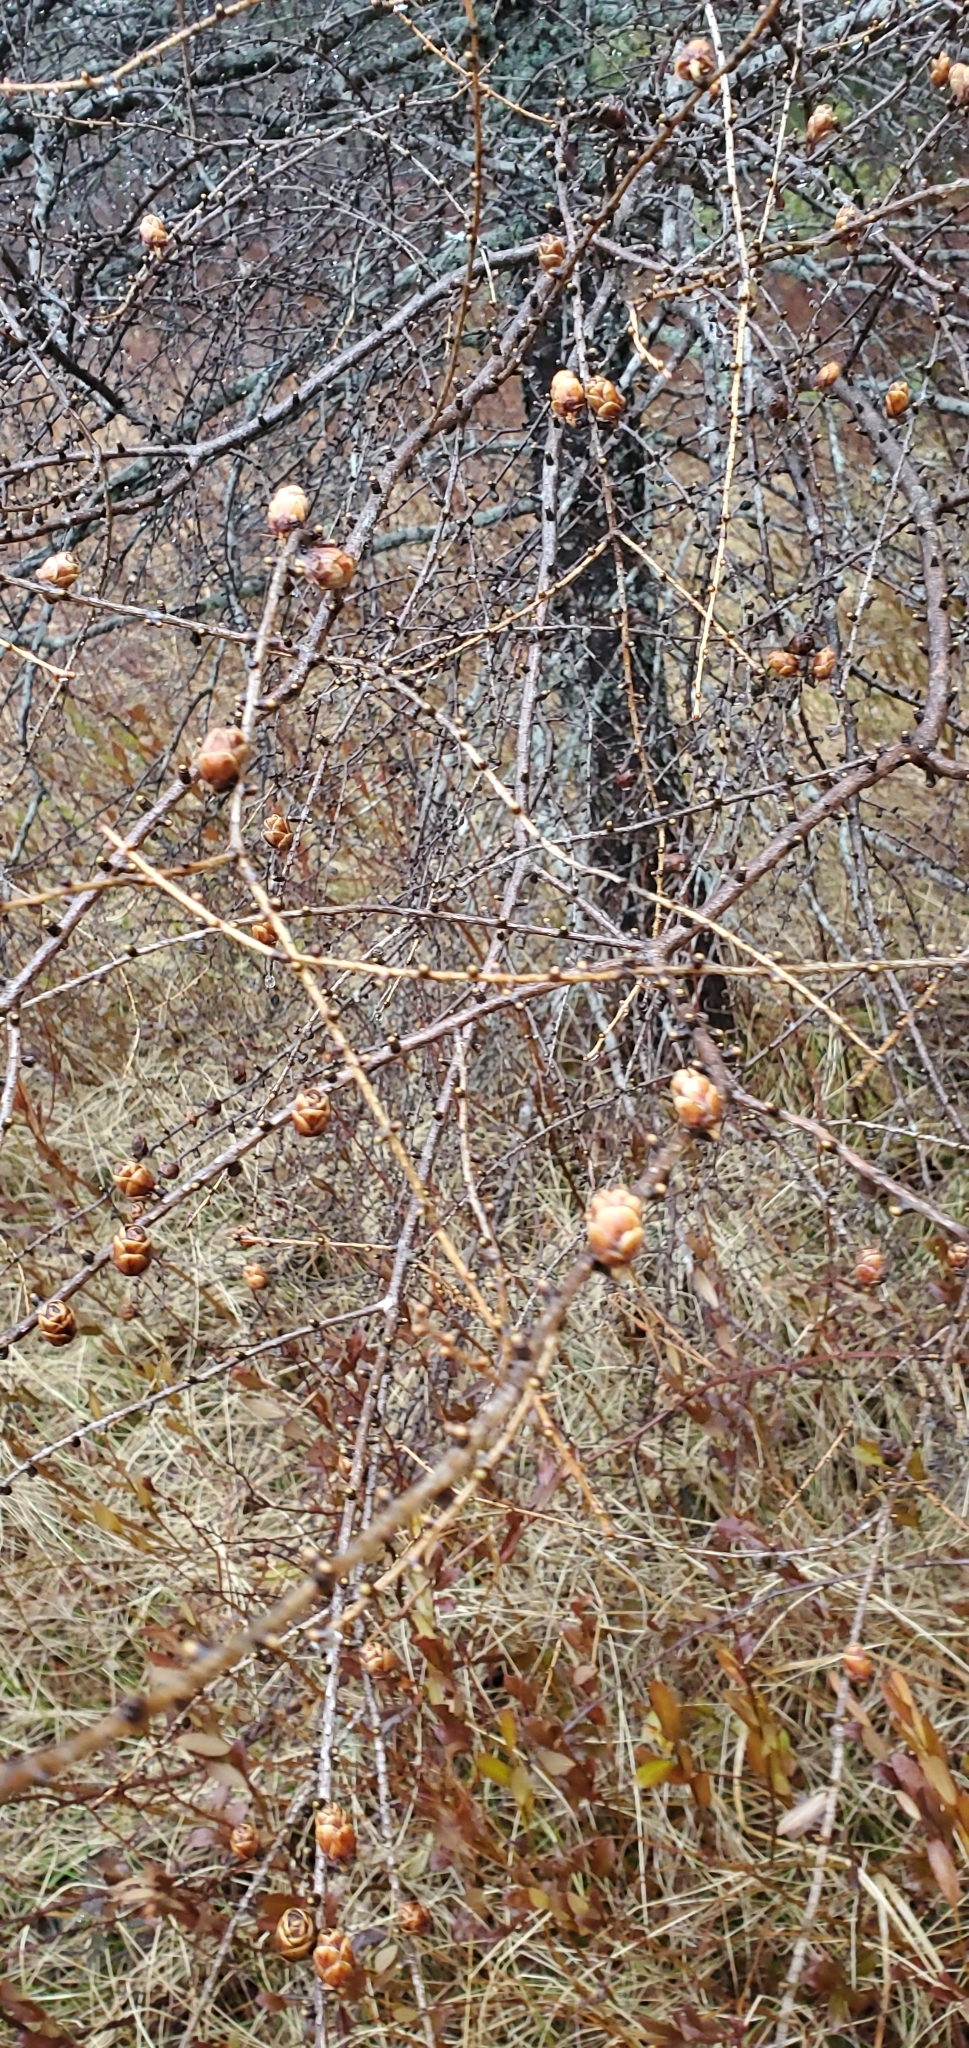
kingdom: Plantae
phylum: Tracheophyta
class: Pinopsida
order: Pinales
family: Pinaceae
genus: Larix
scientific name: Larix laricina
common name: American larch
